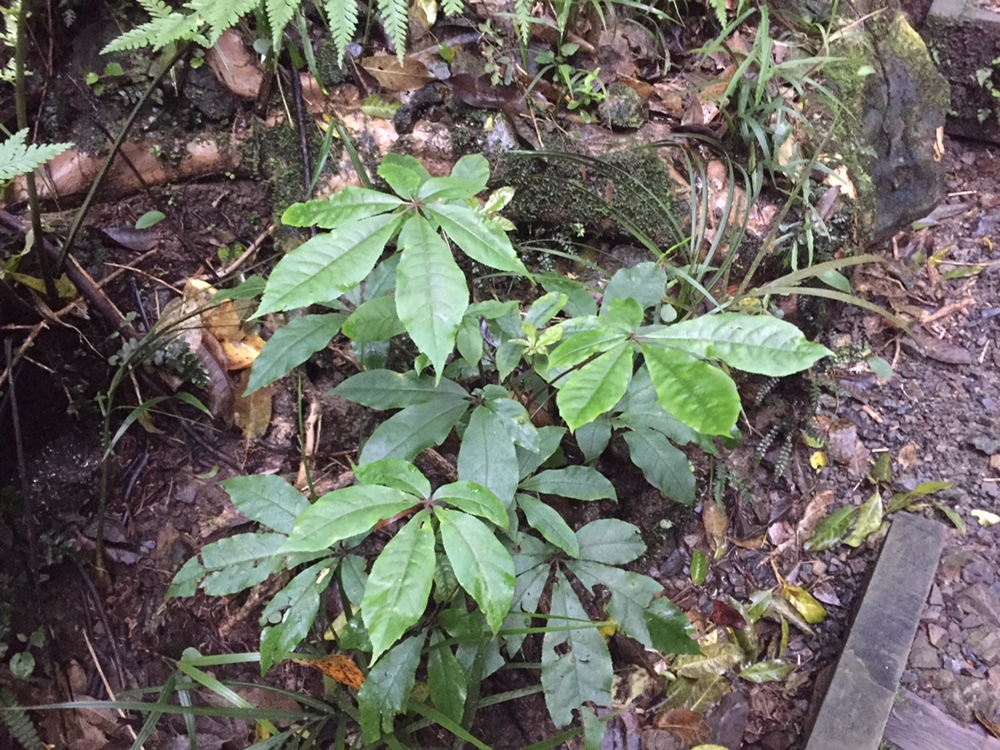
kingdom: Plantae
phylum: Tracheophyta
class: Magnoliopsida
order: Apiales
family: Araliaceae
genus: Schefflera
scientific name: Schefflera digitata
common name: Pate
